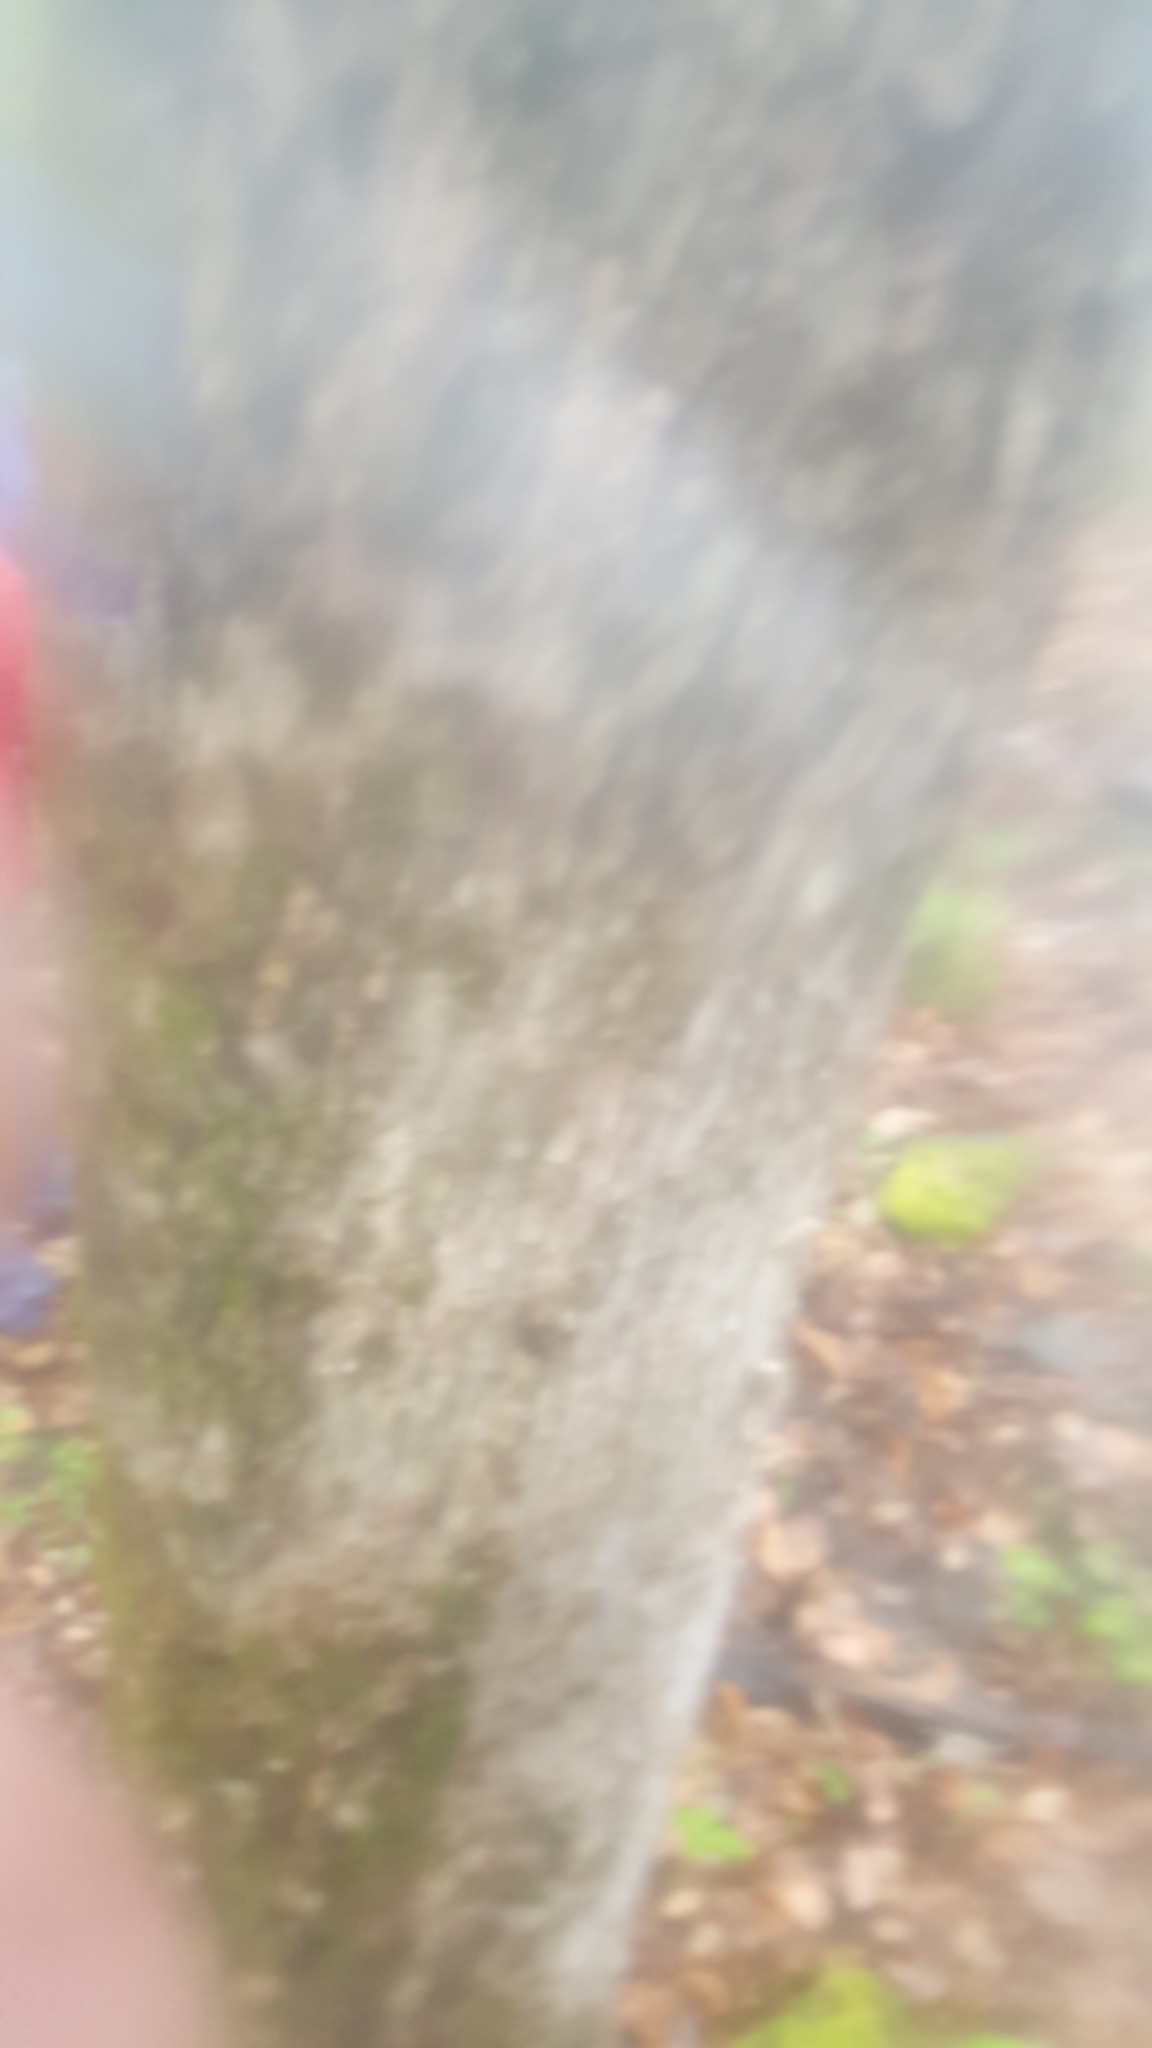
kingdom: Plantae
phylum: Tracheophyta
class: Magnoliopsida
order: Fagales
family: Betulaceae
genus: Ostrya
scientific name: Ostrya virginiana
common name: Ironwood
